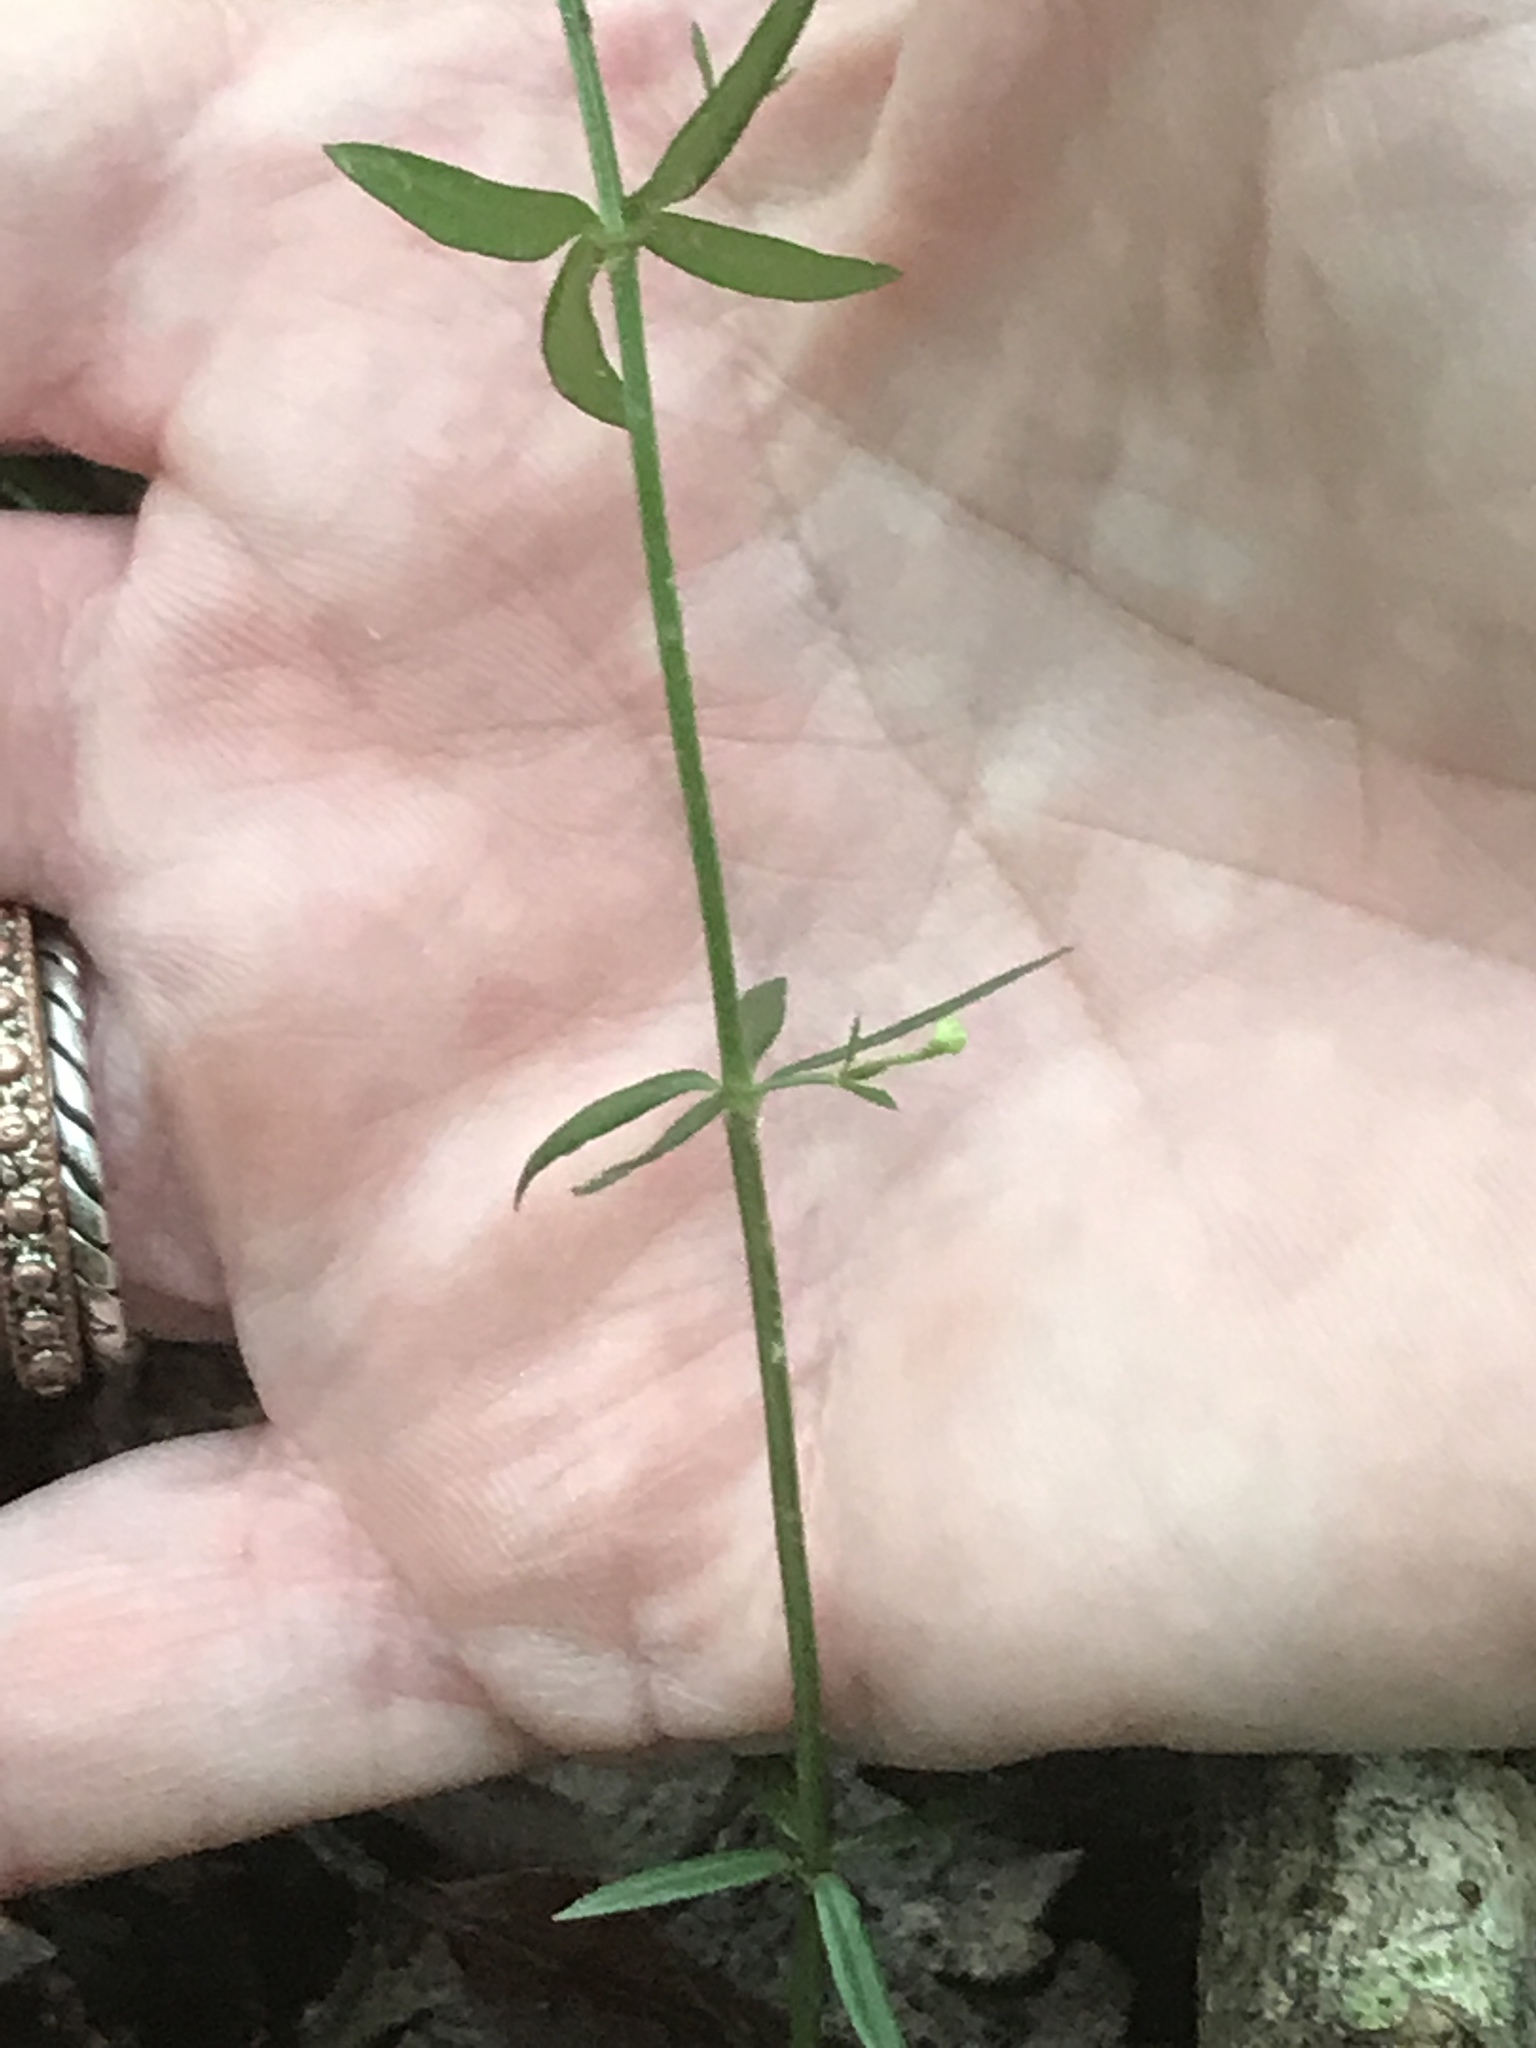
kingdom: Plantae
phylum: Tracheophyta
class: Magnoliopsida
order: Gentianales
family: Rubiaceae
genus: Galium
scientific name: Galium uniflorum
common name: One-flower bedstraw
